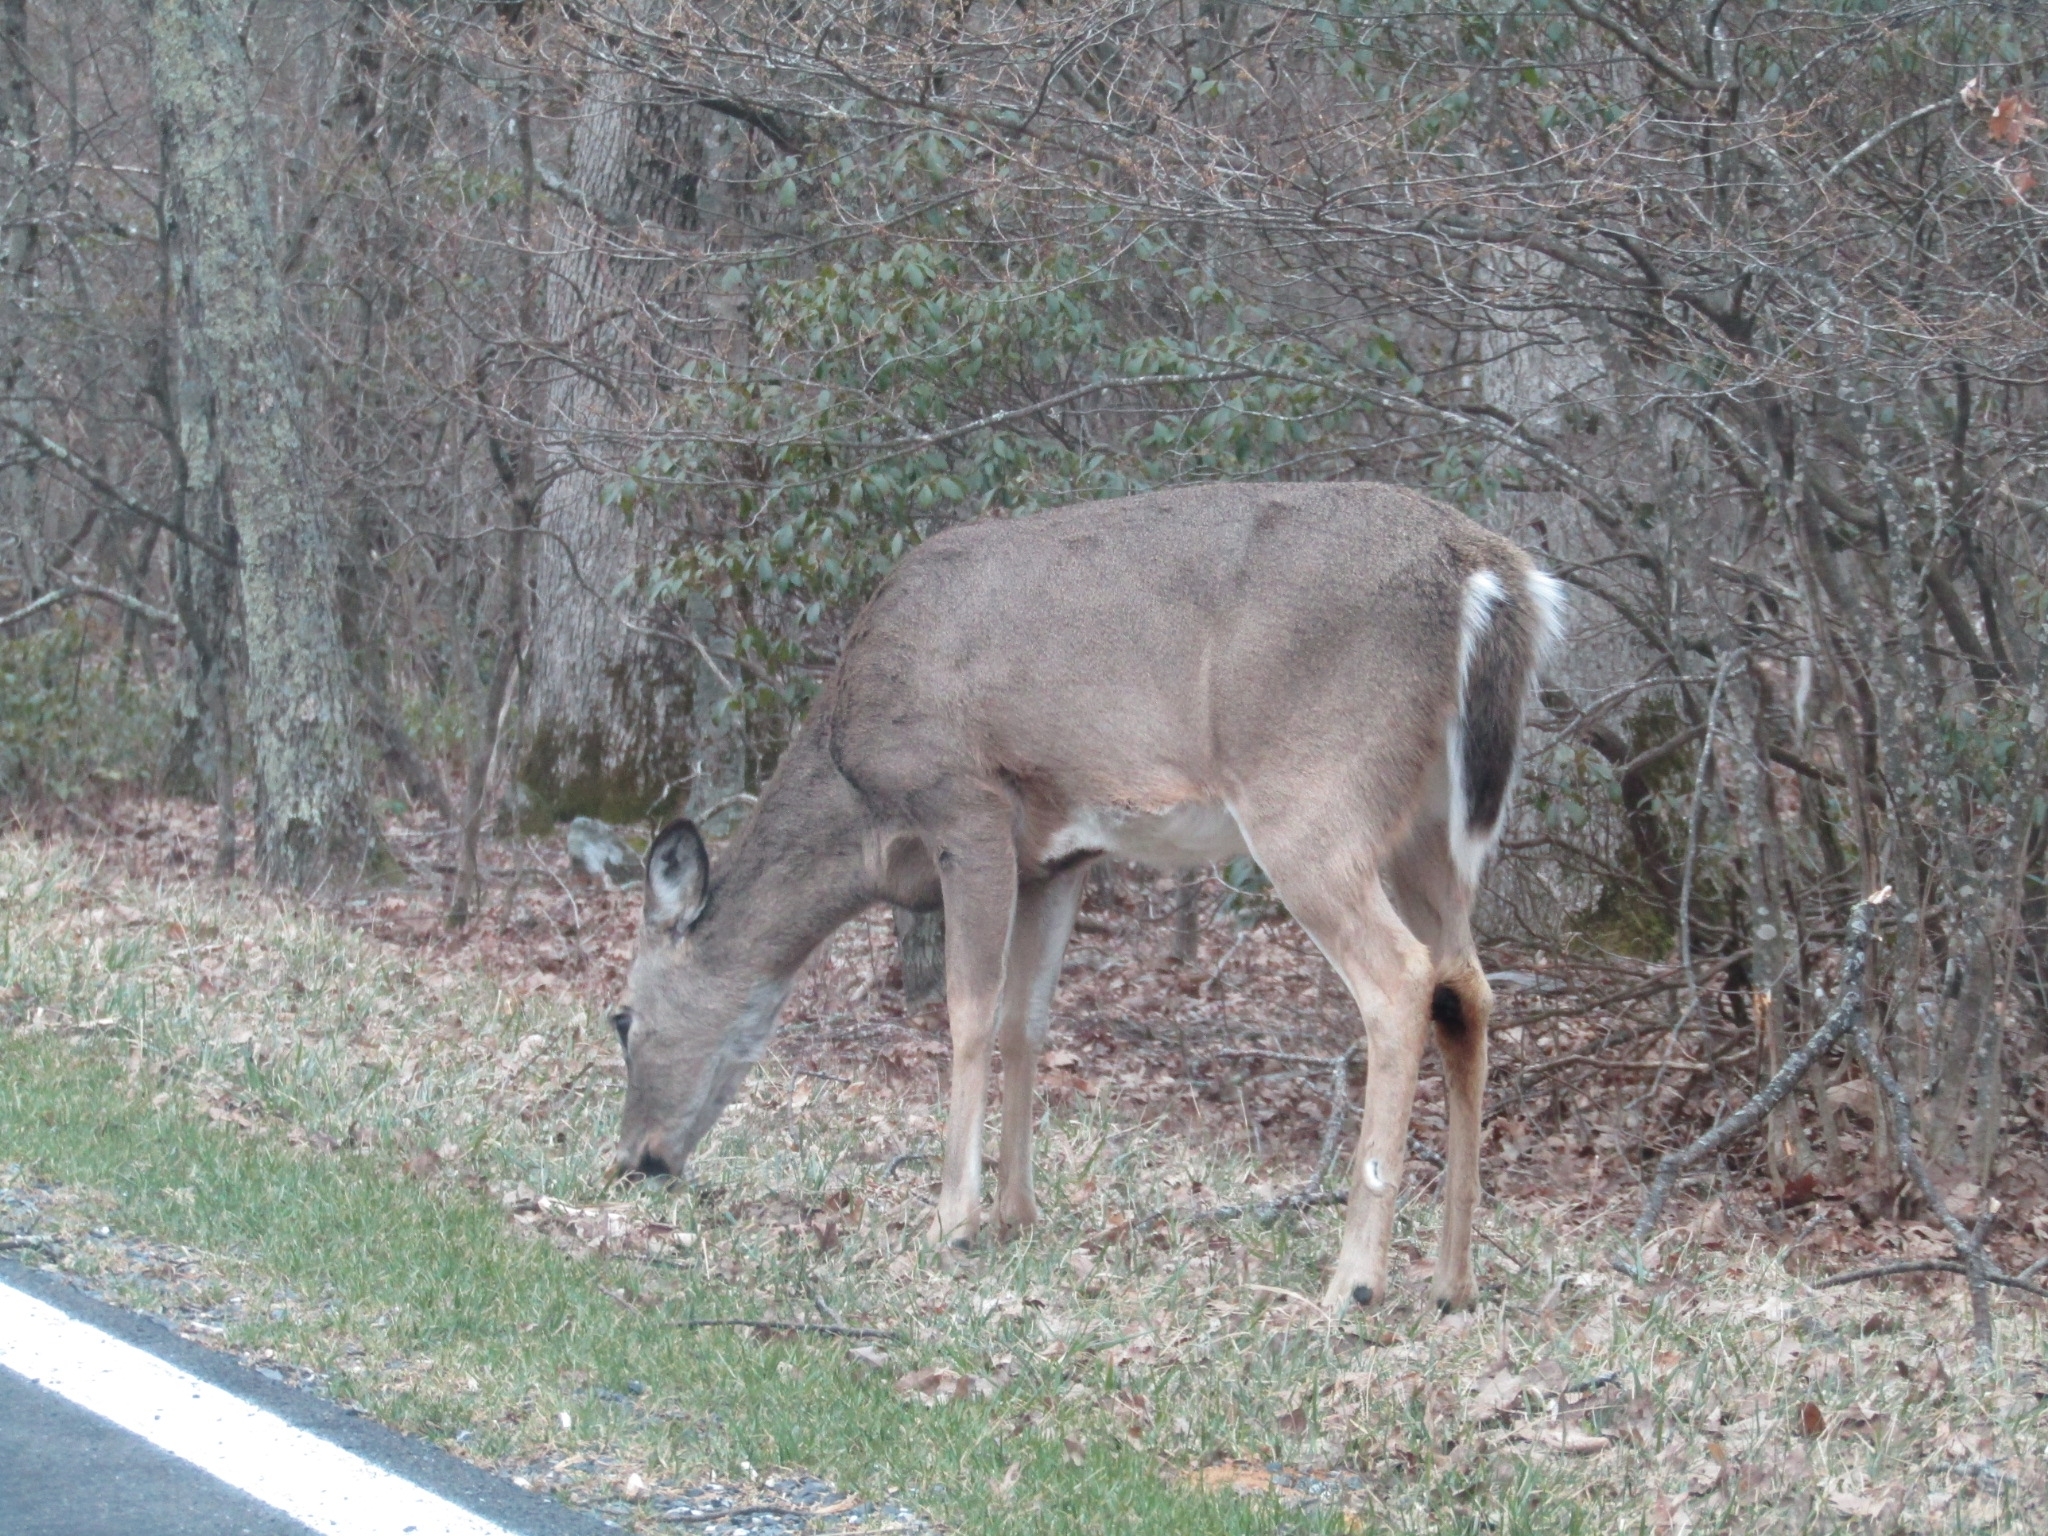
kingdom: Animalia
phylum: Chordata
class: Mammalia
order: Artiodactyla
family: Cervidae
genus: Odocoileus
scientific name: Odocoileus virginianus
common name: White-tailed deer
